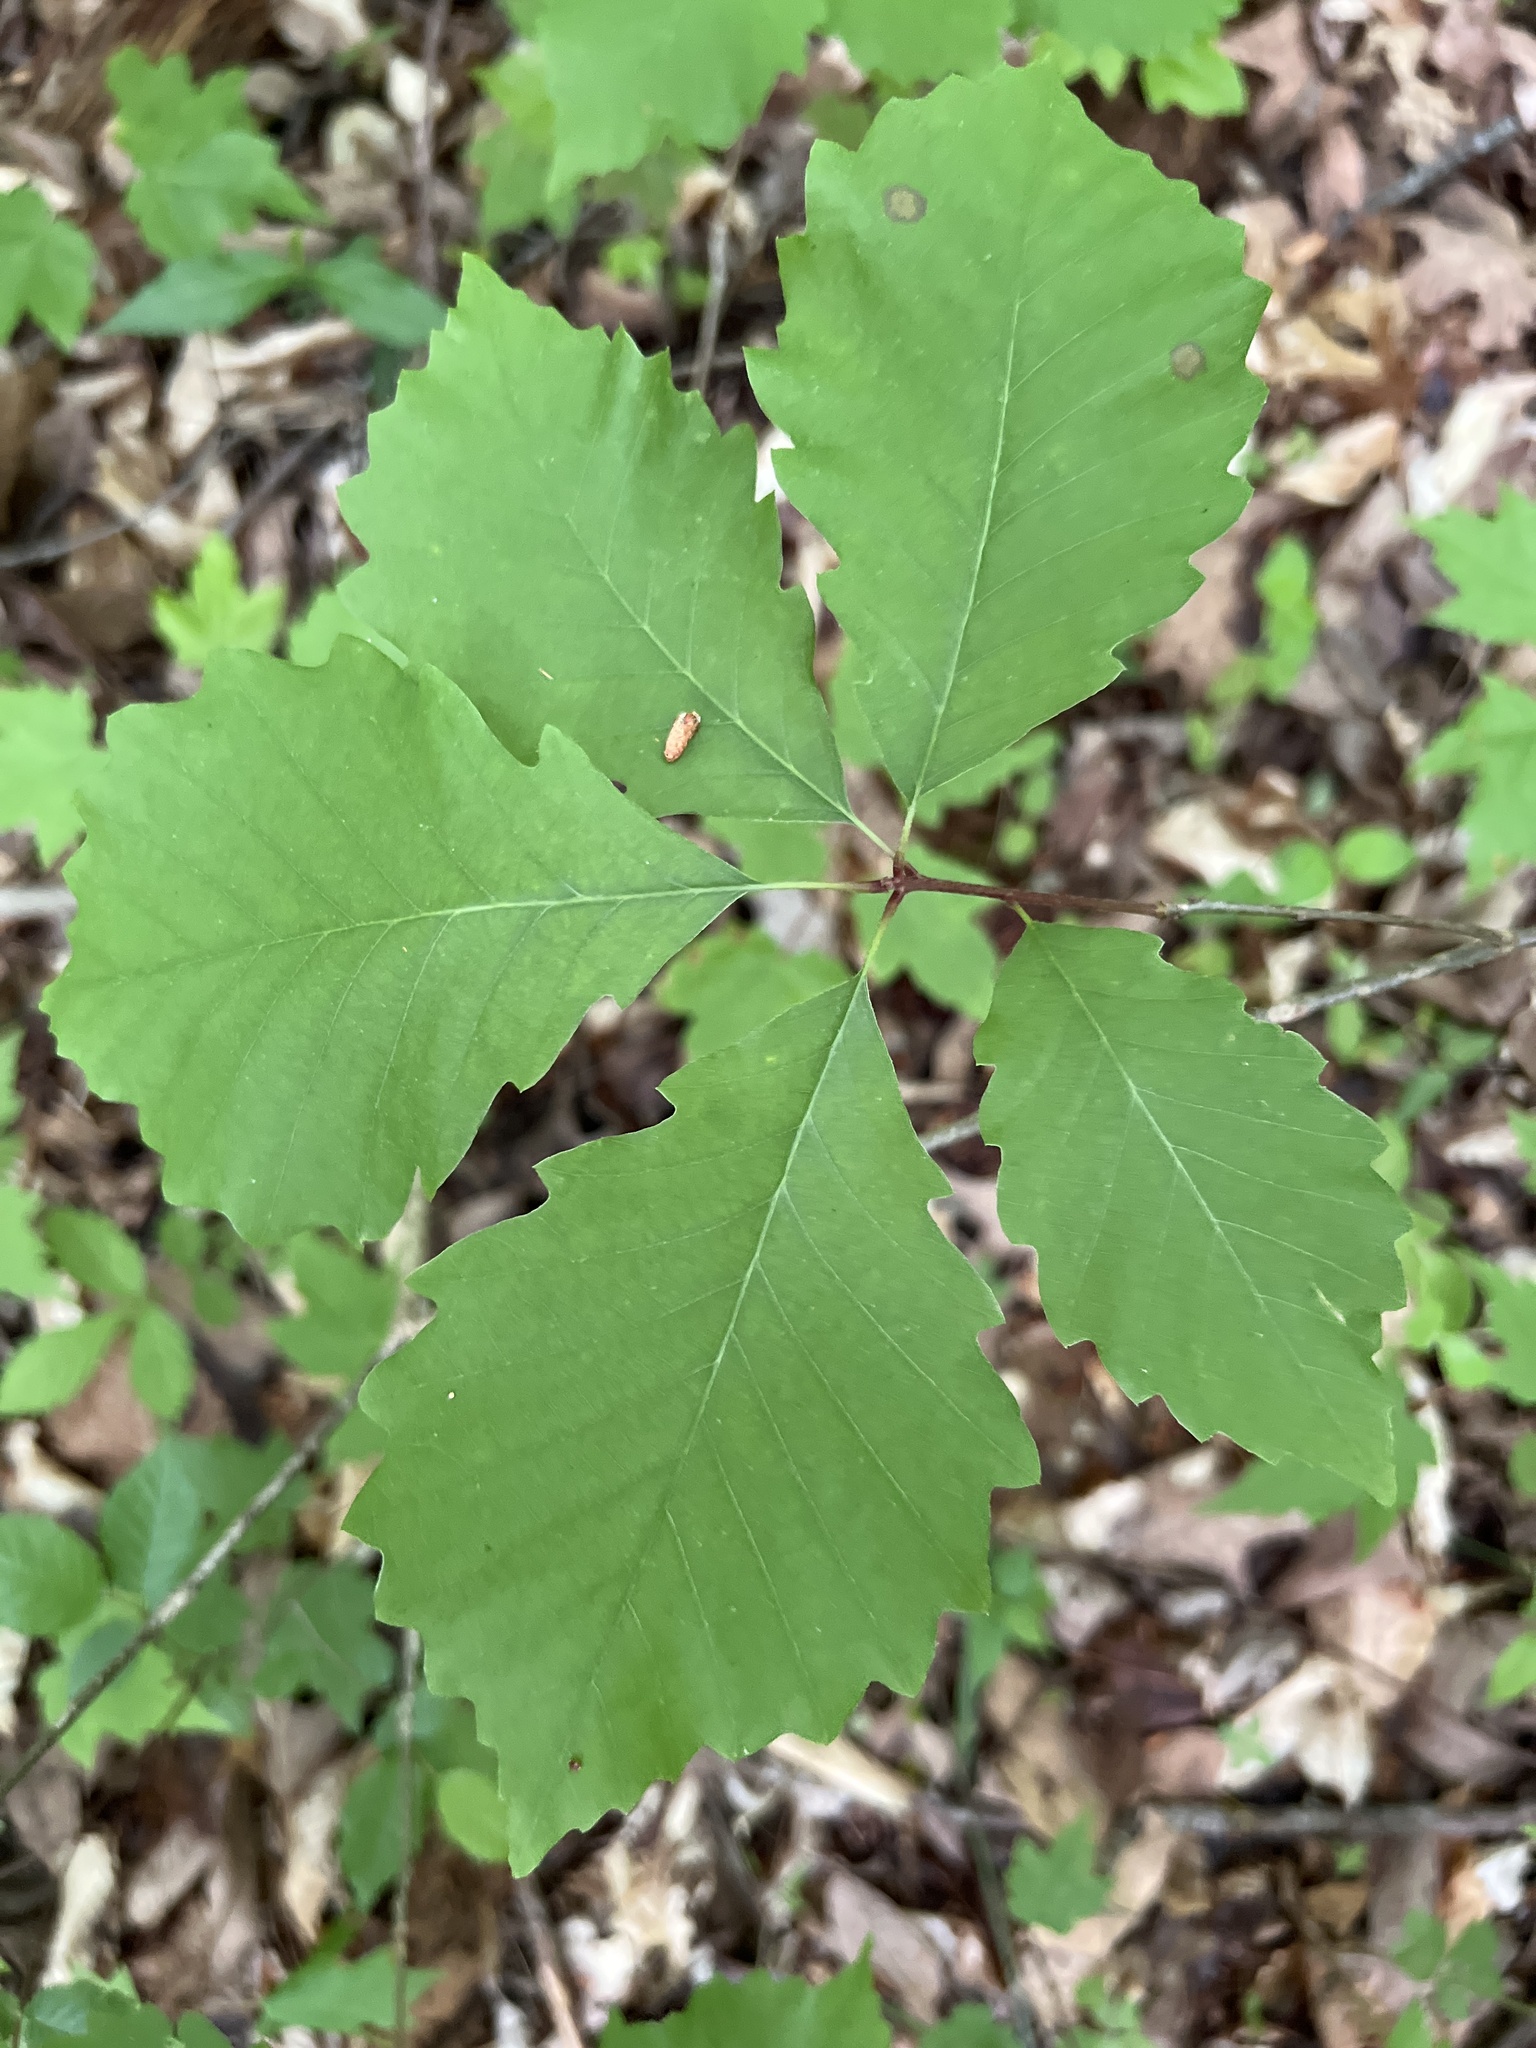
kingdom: Plantae
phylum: Tracheophyta
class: Magnoliopsida
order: Fagales
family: Fagaceae
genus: Quercus
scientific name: Quercus michauxii
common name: Swamp chestnut oak
